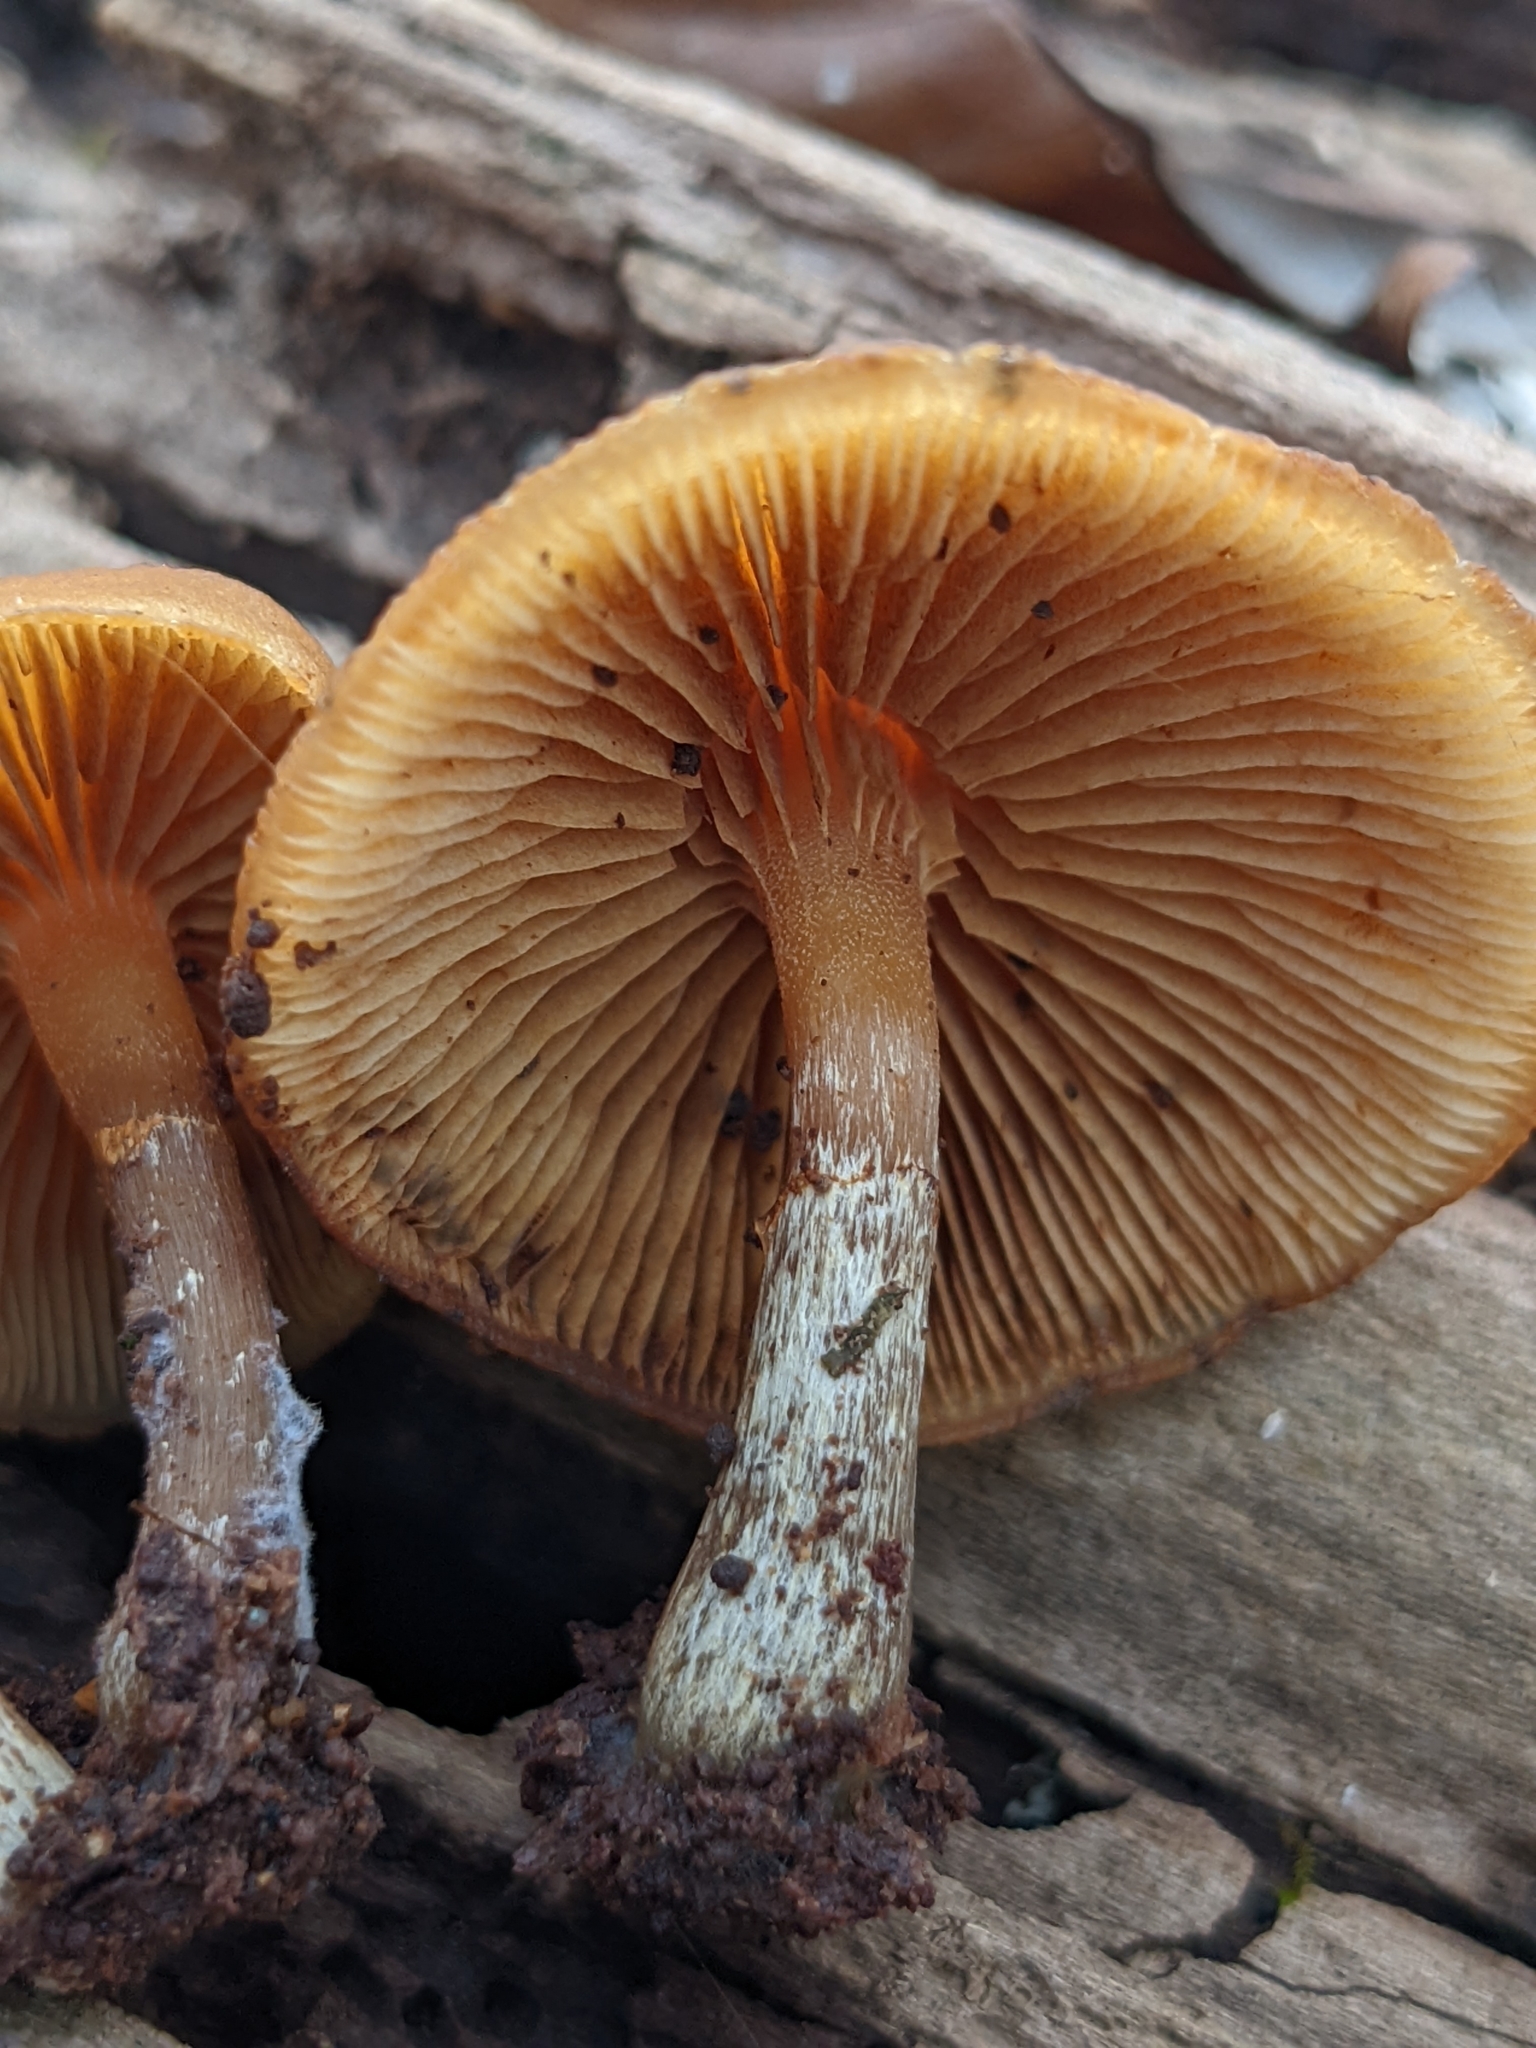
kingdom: Fungi
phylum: Basidiomycota
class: Agaricomycetes
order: Agaricales
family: Hymenogastraceae
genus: Galerina
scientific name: Galerina marginata
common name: Funeral bell
